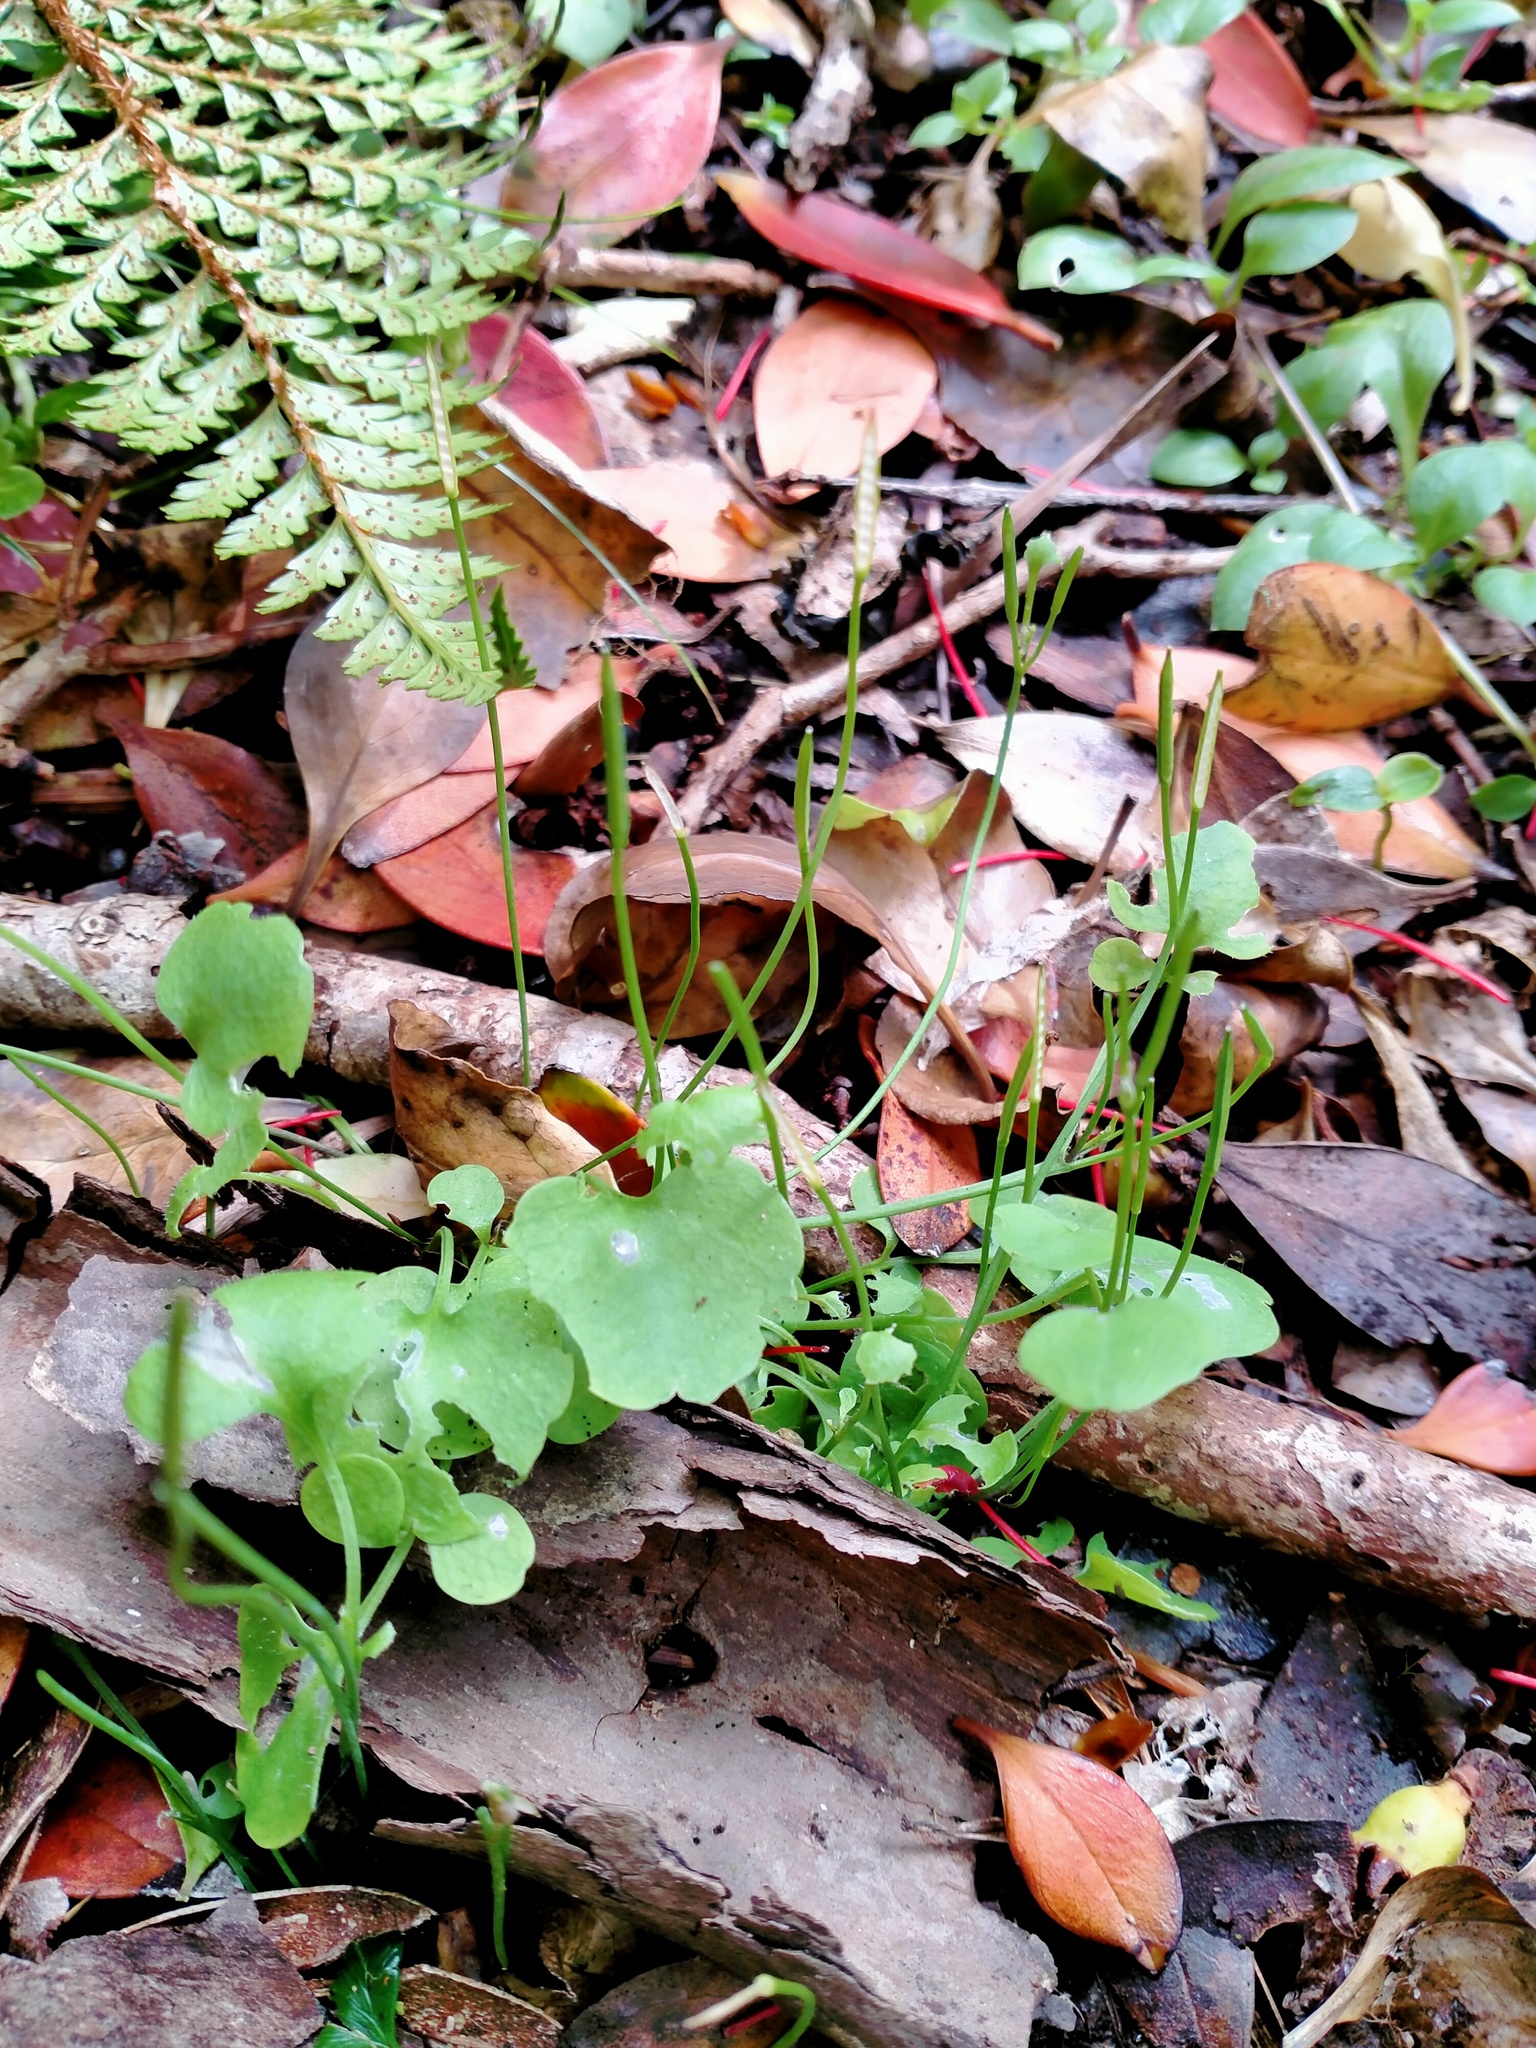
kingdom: Plantae
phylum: Tracheophyta
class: Magnoliopsida
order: Brassicales
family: Brassicaceae
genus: Cardamine
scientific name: Cardamine corymbosa
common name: New zealand bitter-cress
